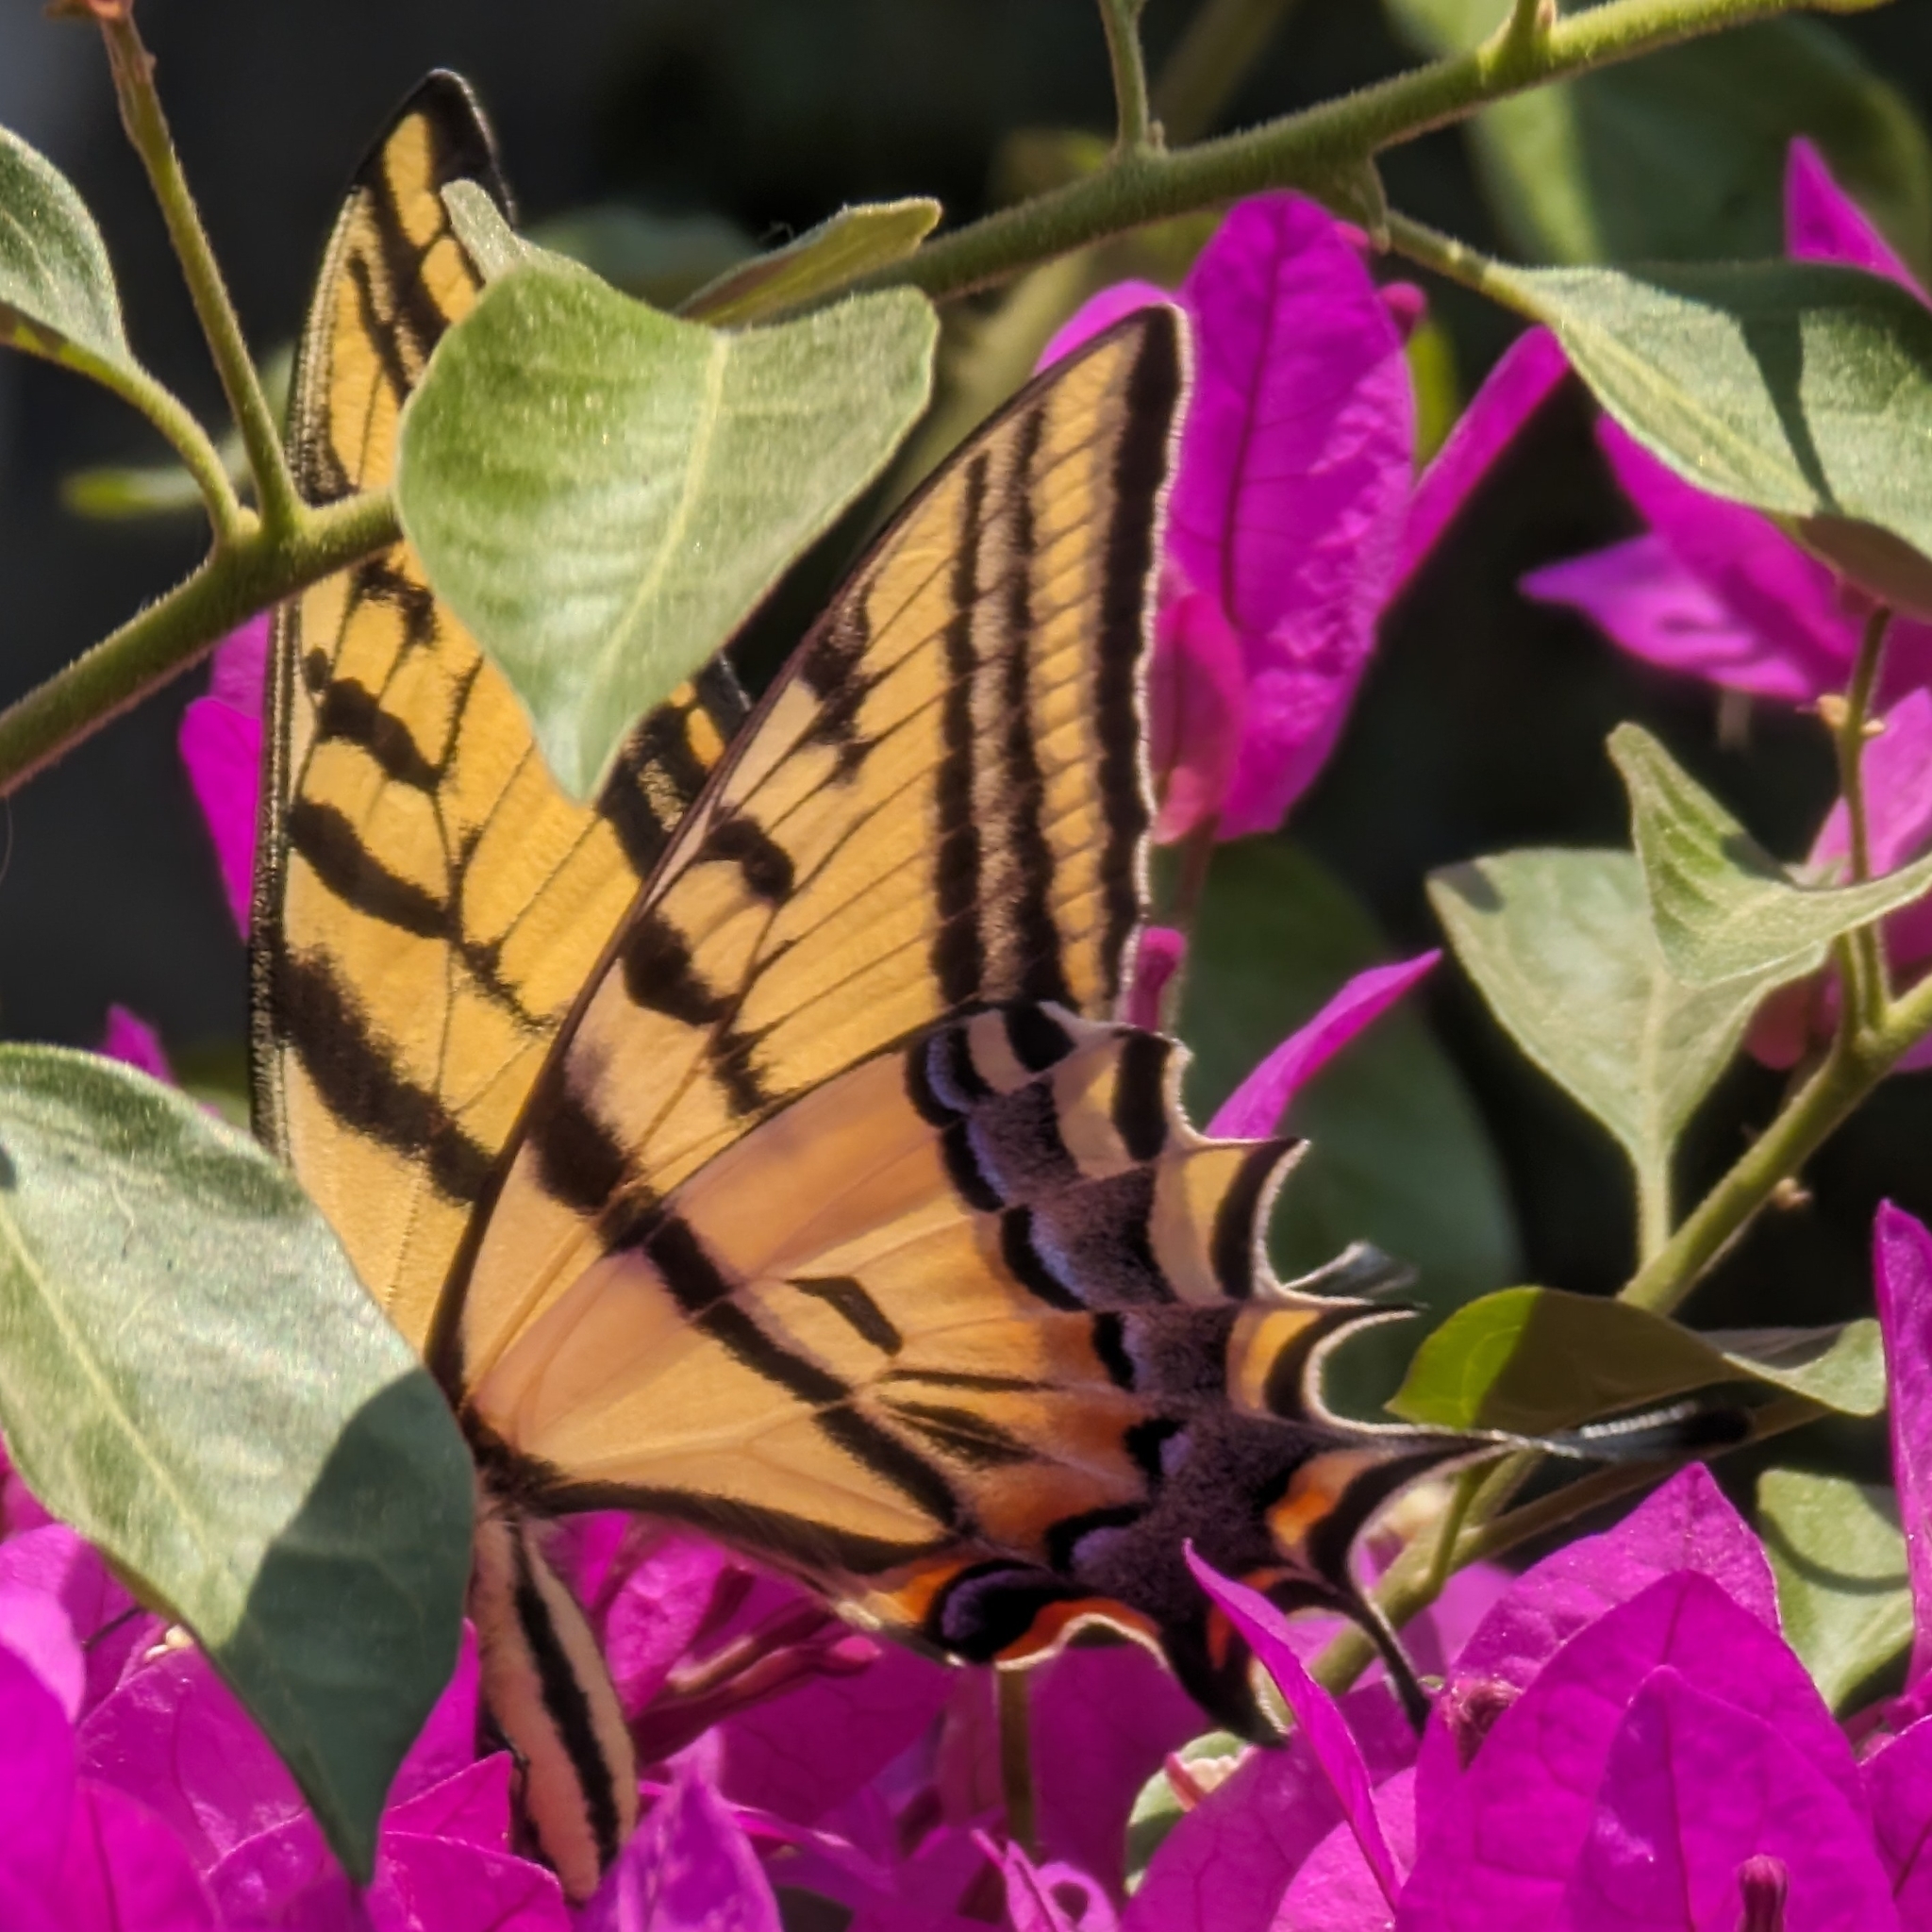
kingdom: Animalia
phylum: Arthropoda
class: Insecta
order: Lepidoptera
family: Papilionidae
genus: Papilio
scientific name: Papilio multicaudata
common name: Two-tailed tiger swallowtail
